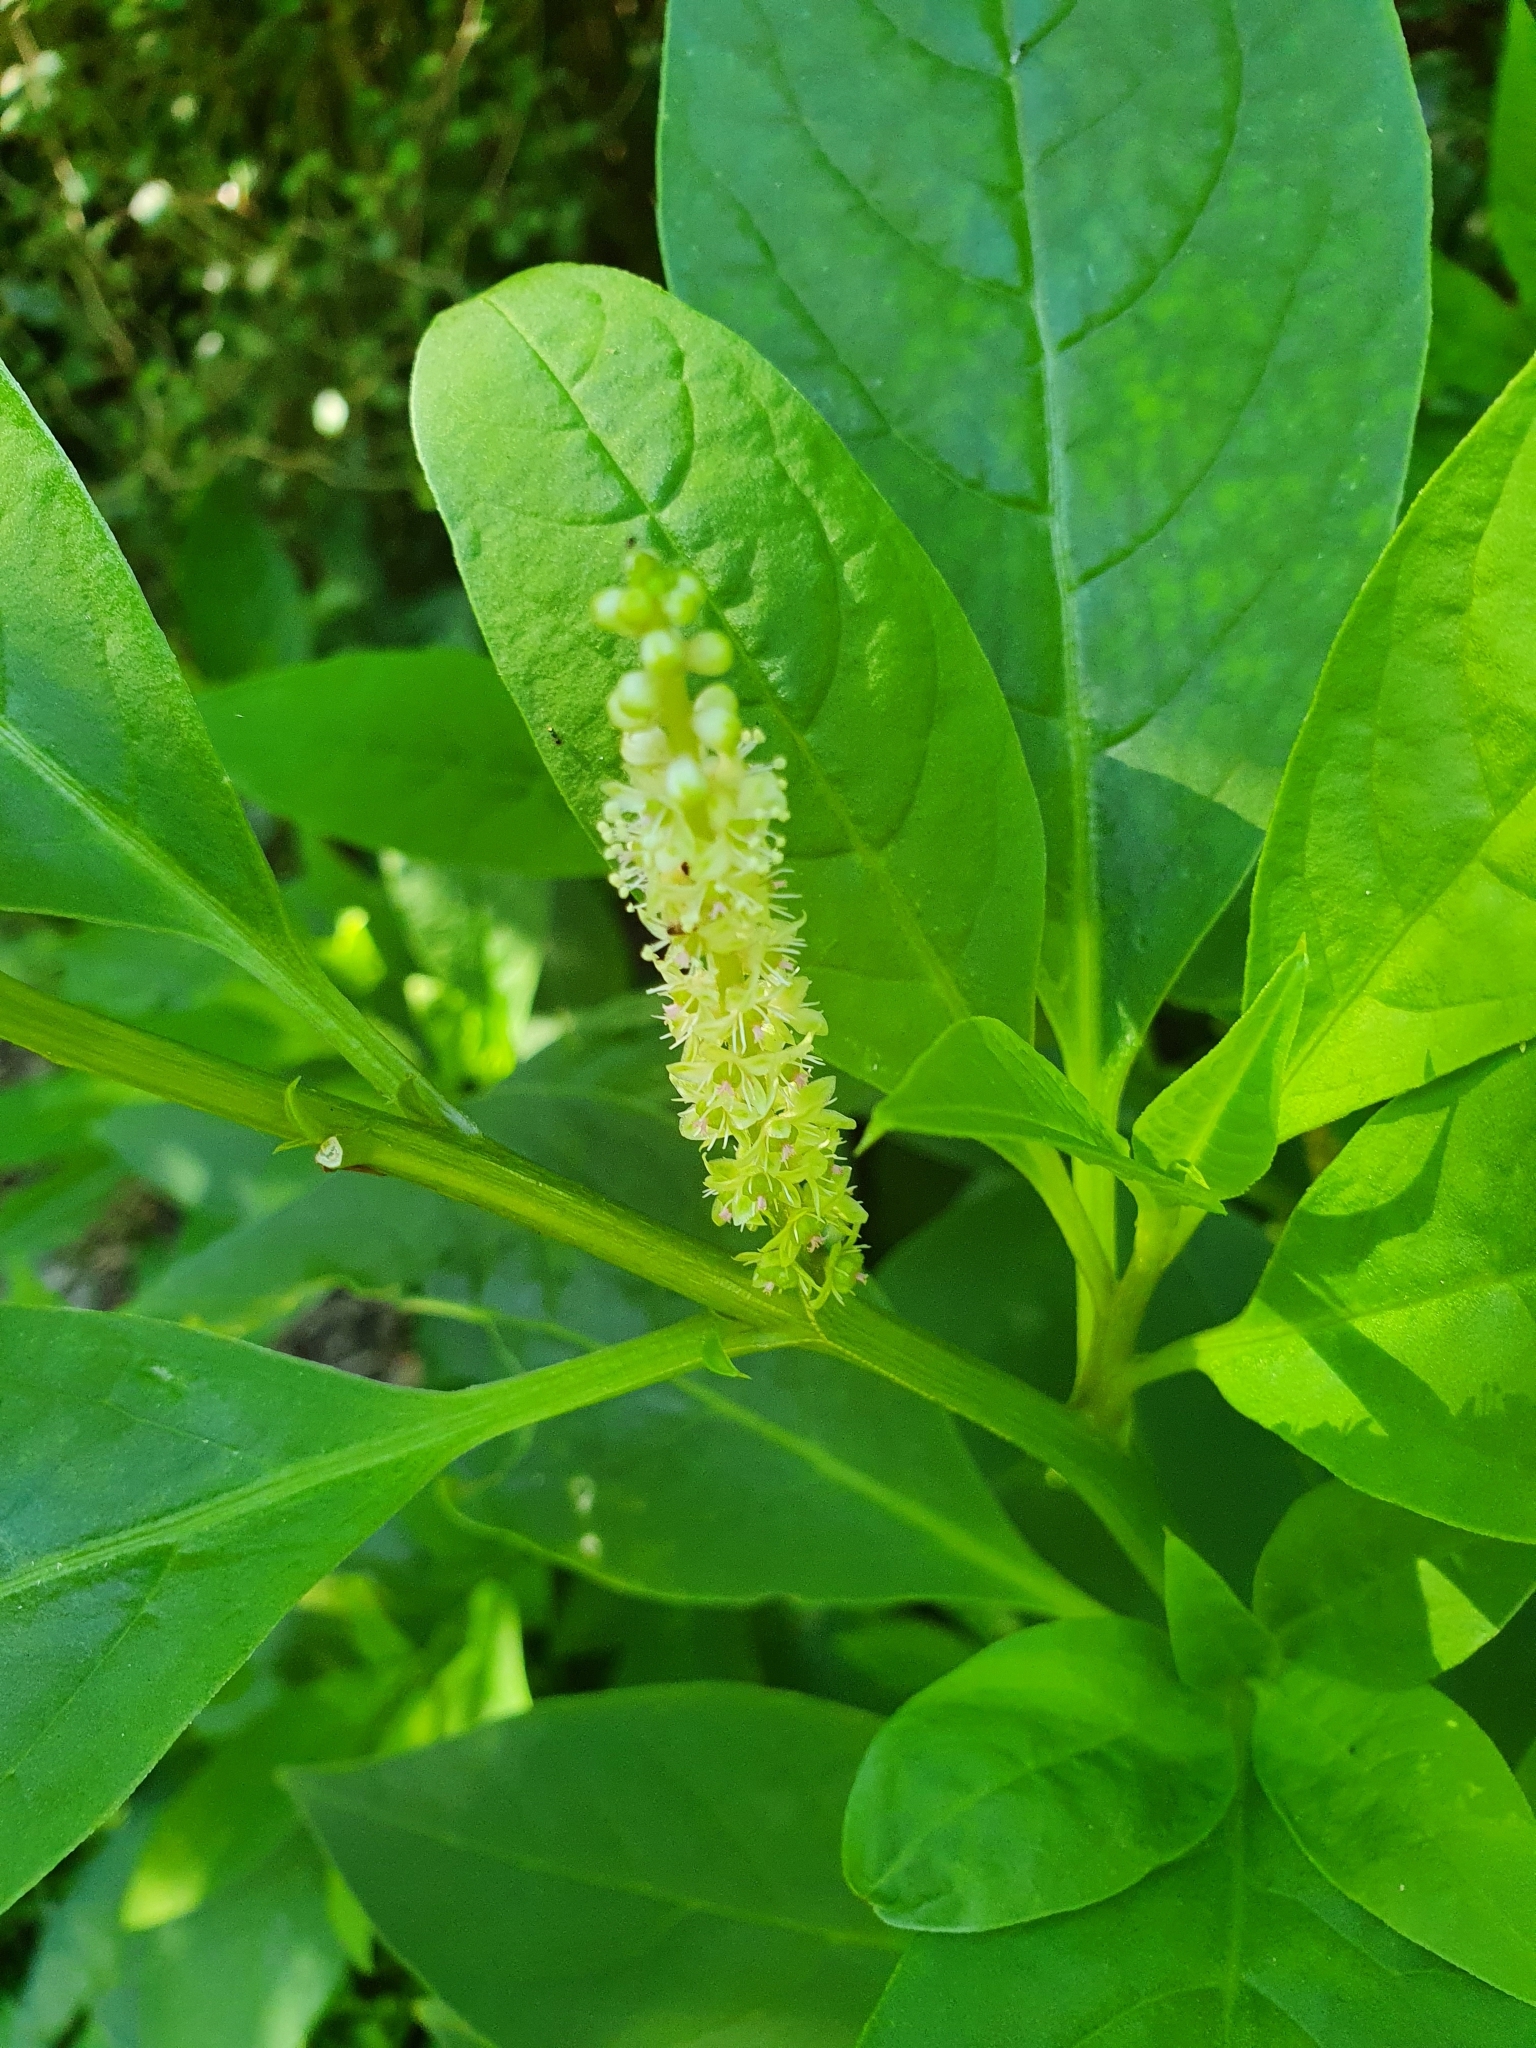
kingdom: Plantae
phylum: Tracheophyta
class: Magnoliopsida
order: Caryophyllales
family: Phytolaccaceae
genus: Phytolacca
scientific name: Phytolacca icosandra
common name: Button pokeweed
